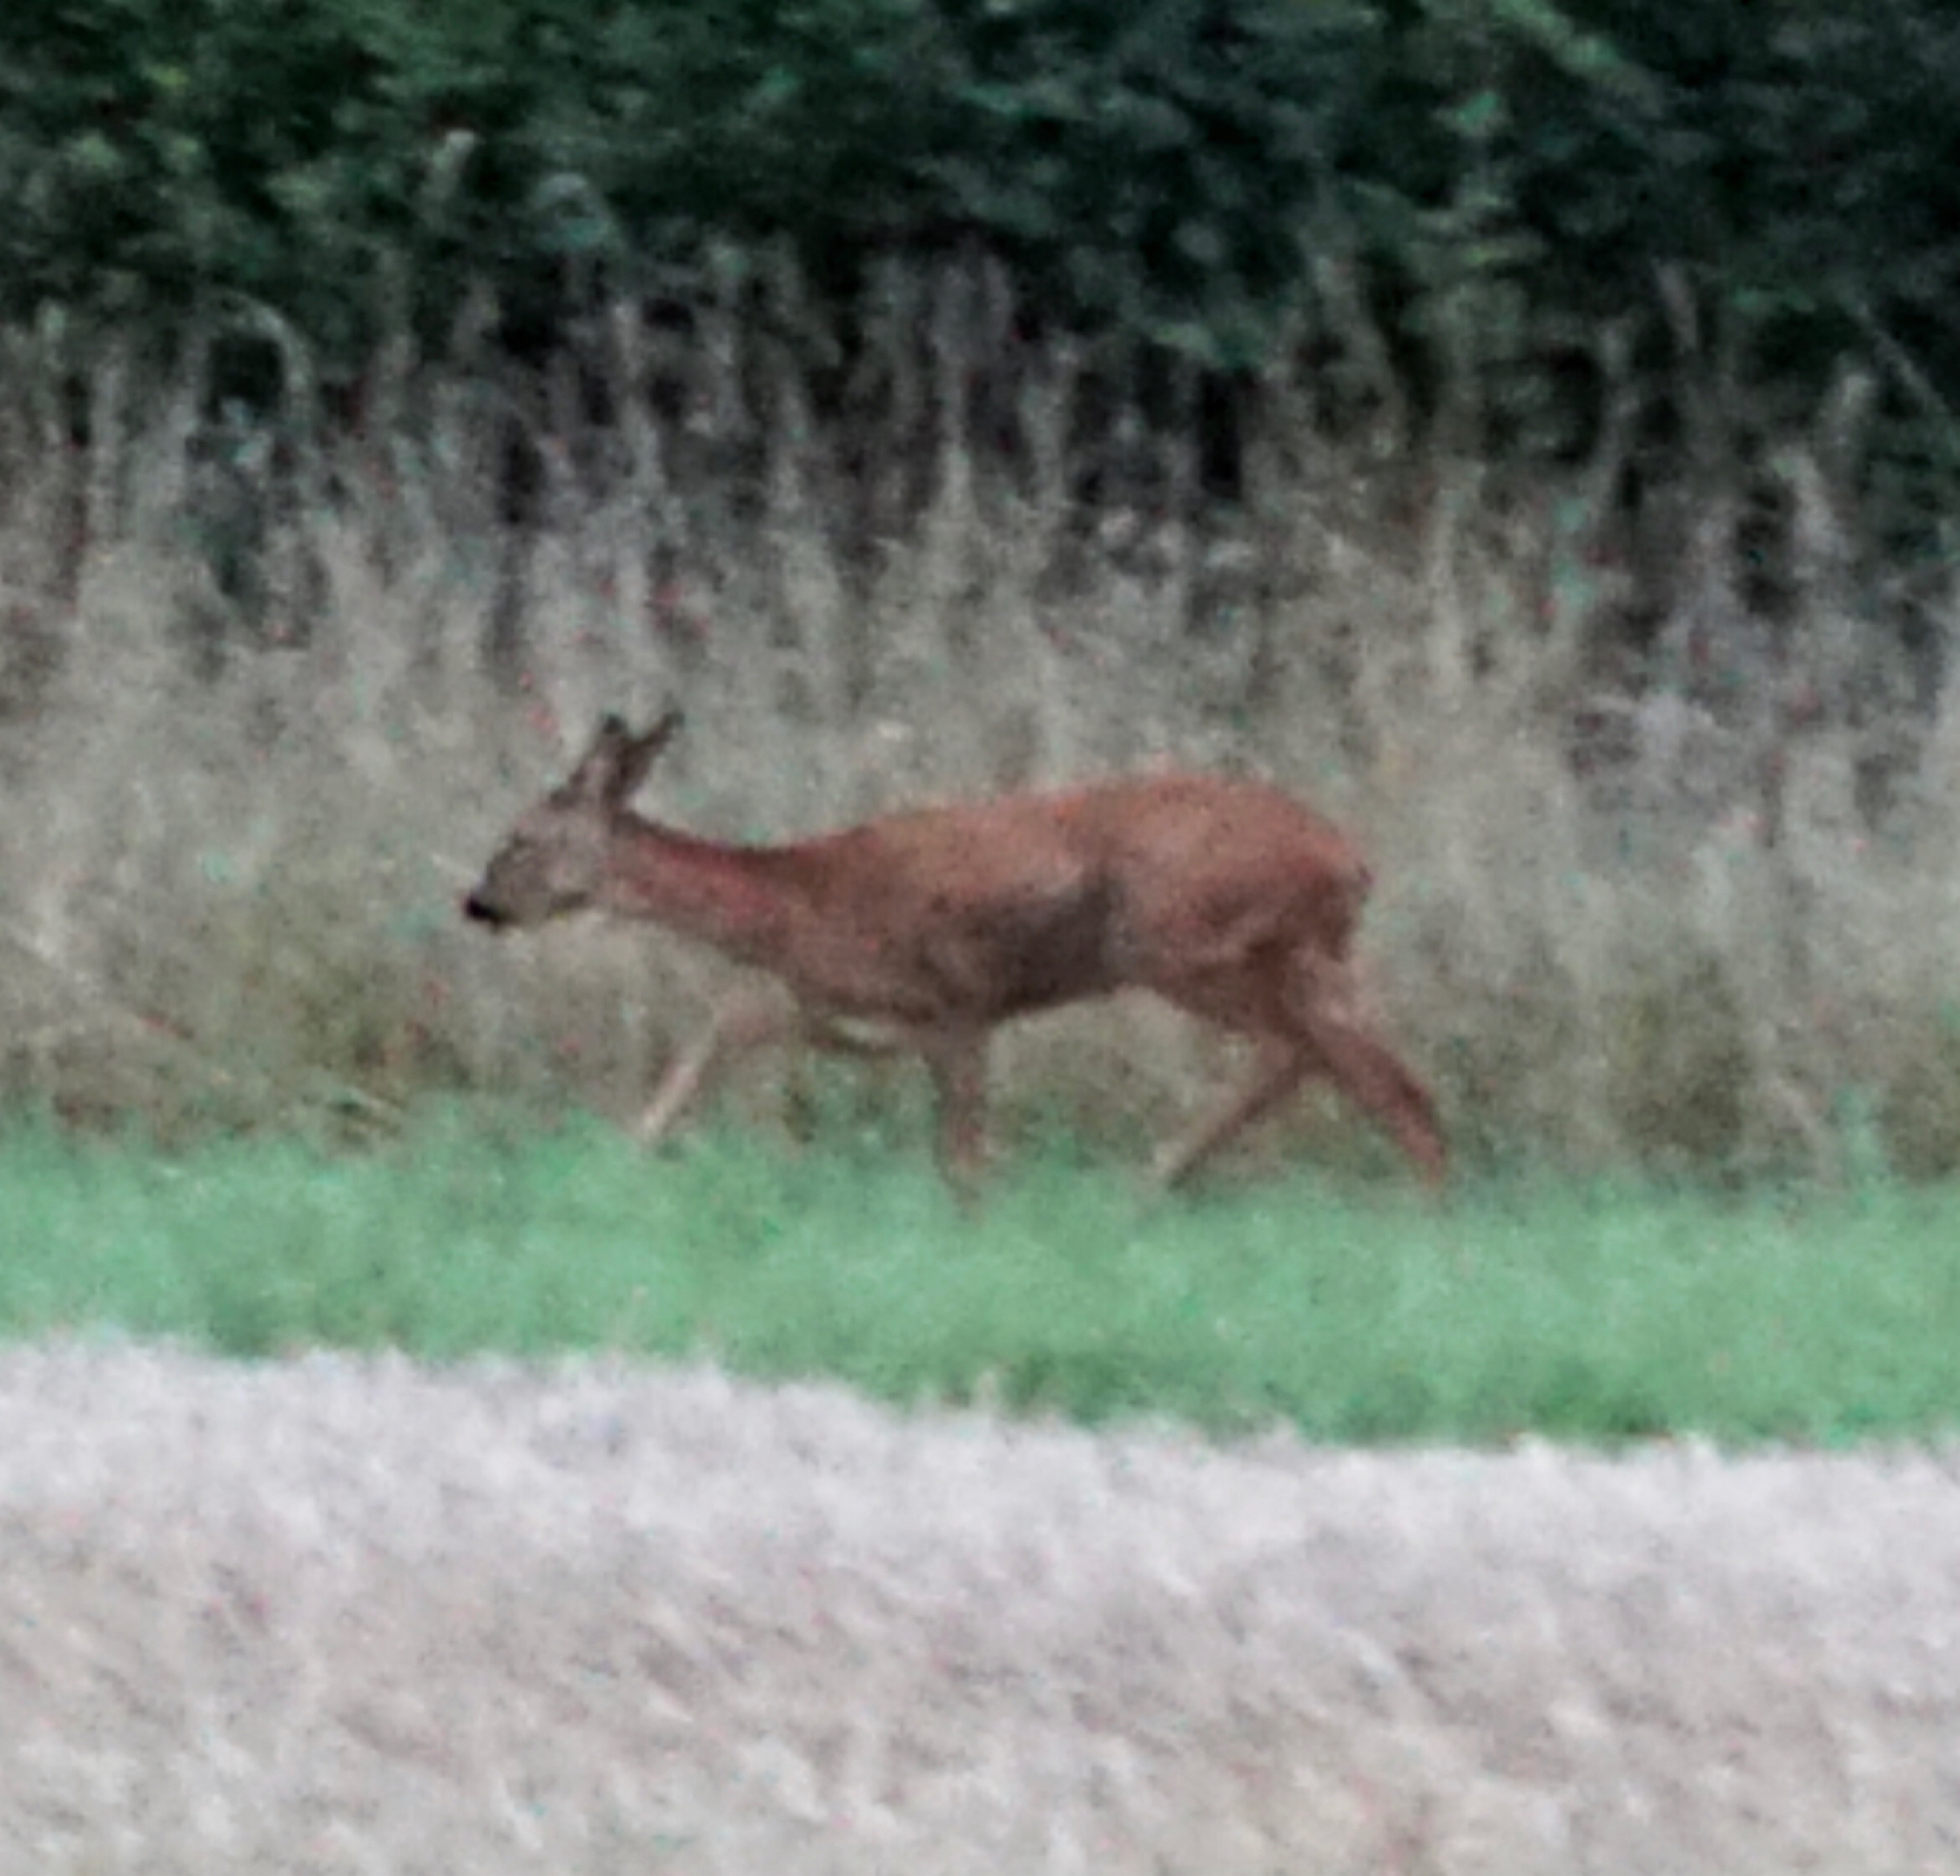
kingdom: Animalia
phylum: Chordata
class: Mammalia
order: Artiodactyla
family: Cervidae
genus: Capreolus
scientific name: Capreolus capreolus
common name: Western roe deer
